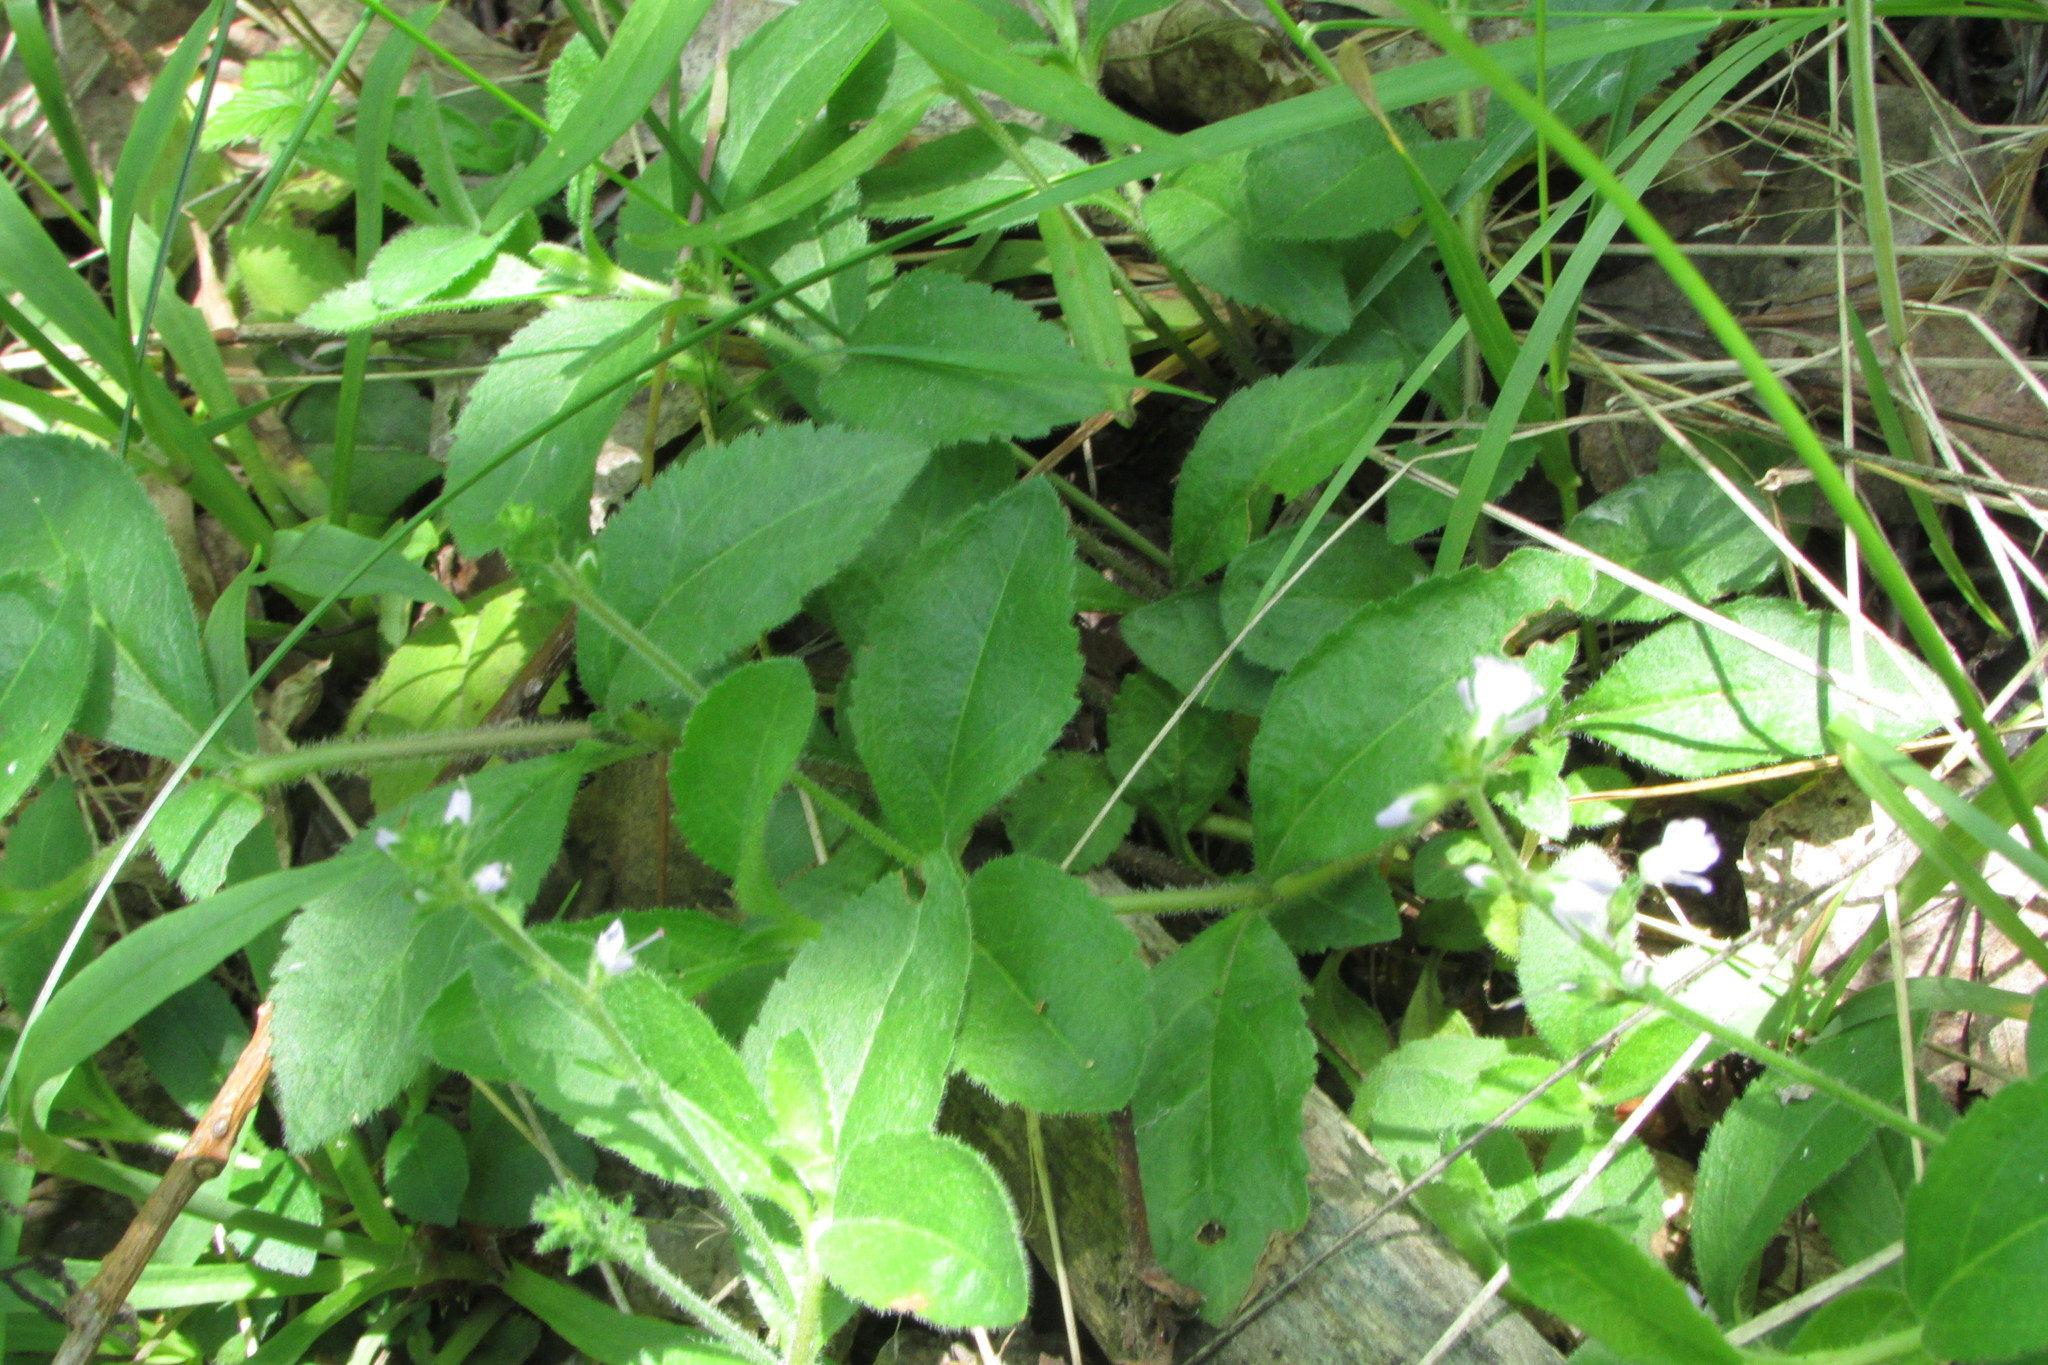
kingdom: Plantae
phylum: Tracheophyta
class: Magnoliopsida
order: Lamiales
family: Plantaginaceae
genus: Veronica
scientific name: Veronica officinalis
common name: Common speedwell
